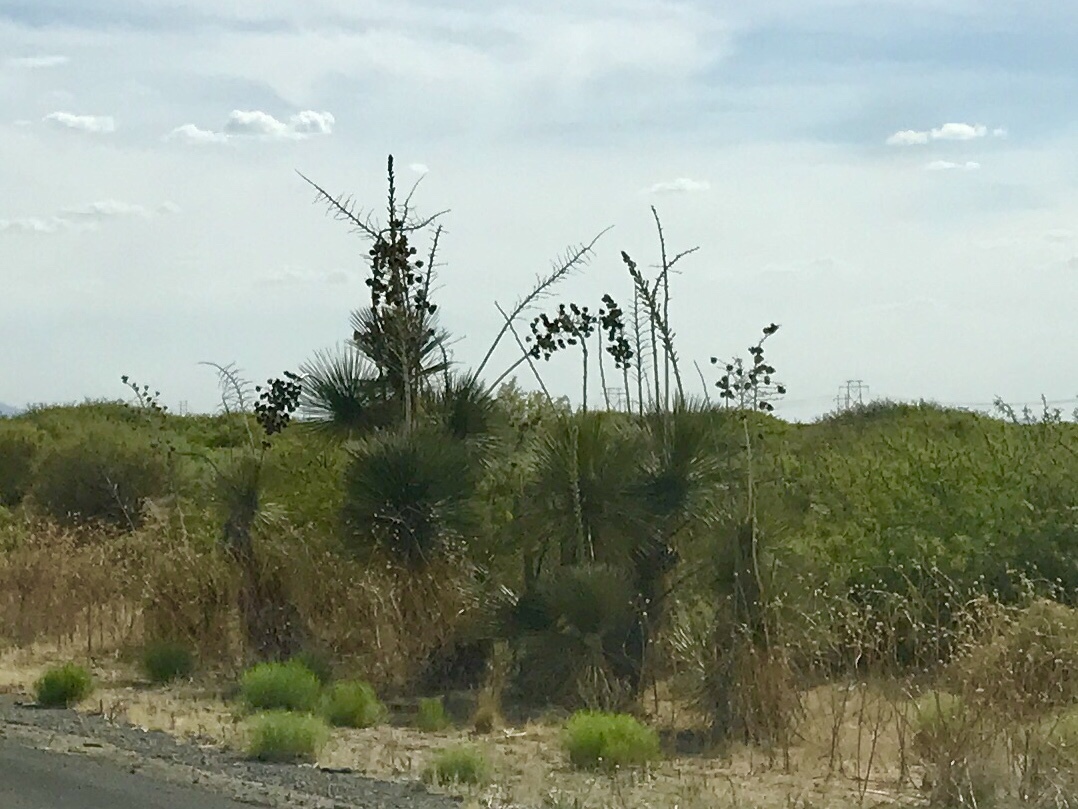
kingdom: Plantae
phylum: Tracheophyta
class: Liliopsida
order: Asparagales
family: Asparagaceae
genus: Yucca
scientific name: Yucca elata
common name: Palmella
